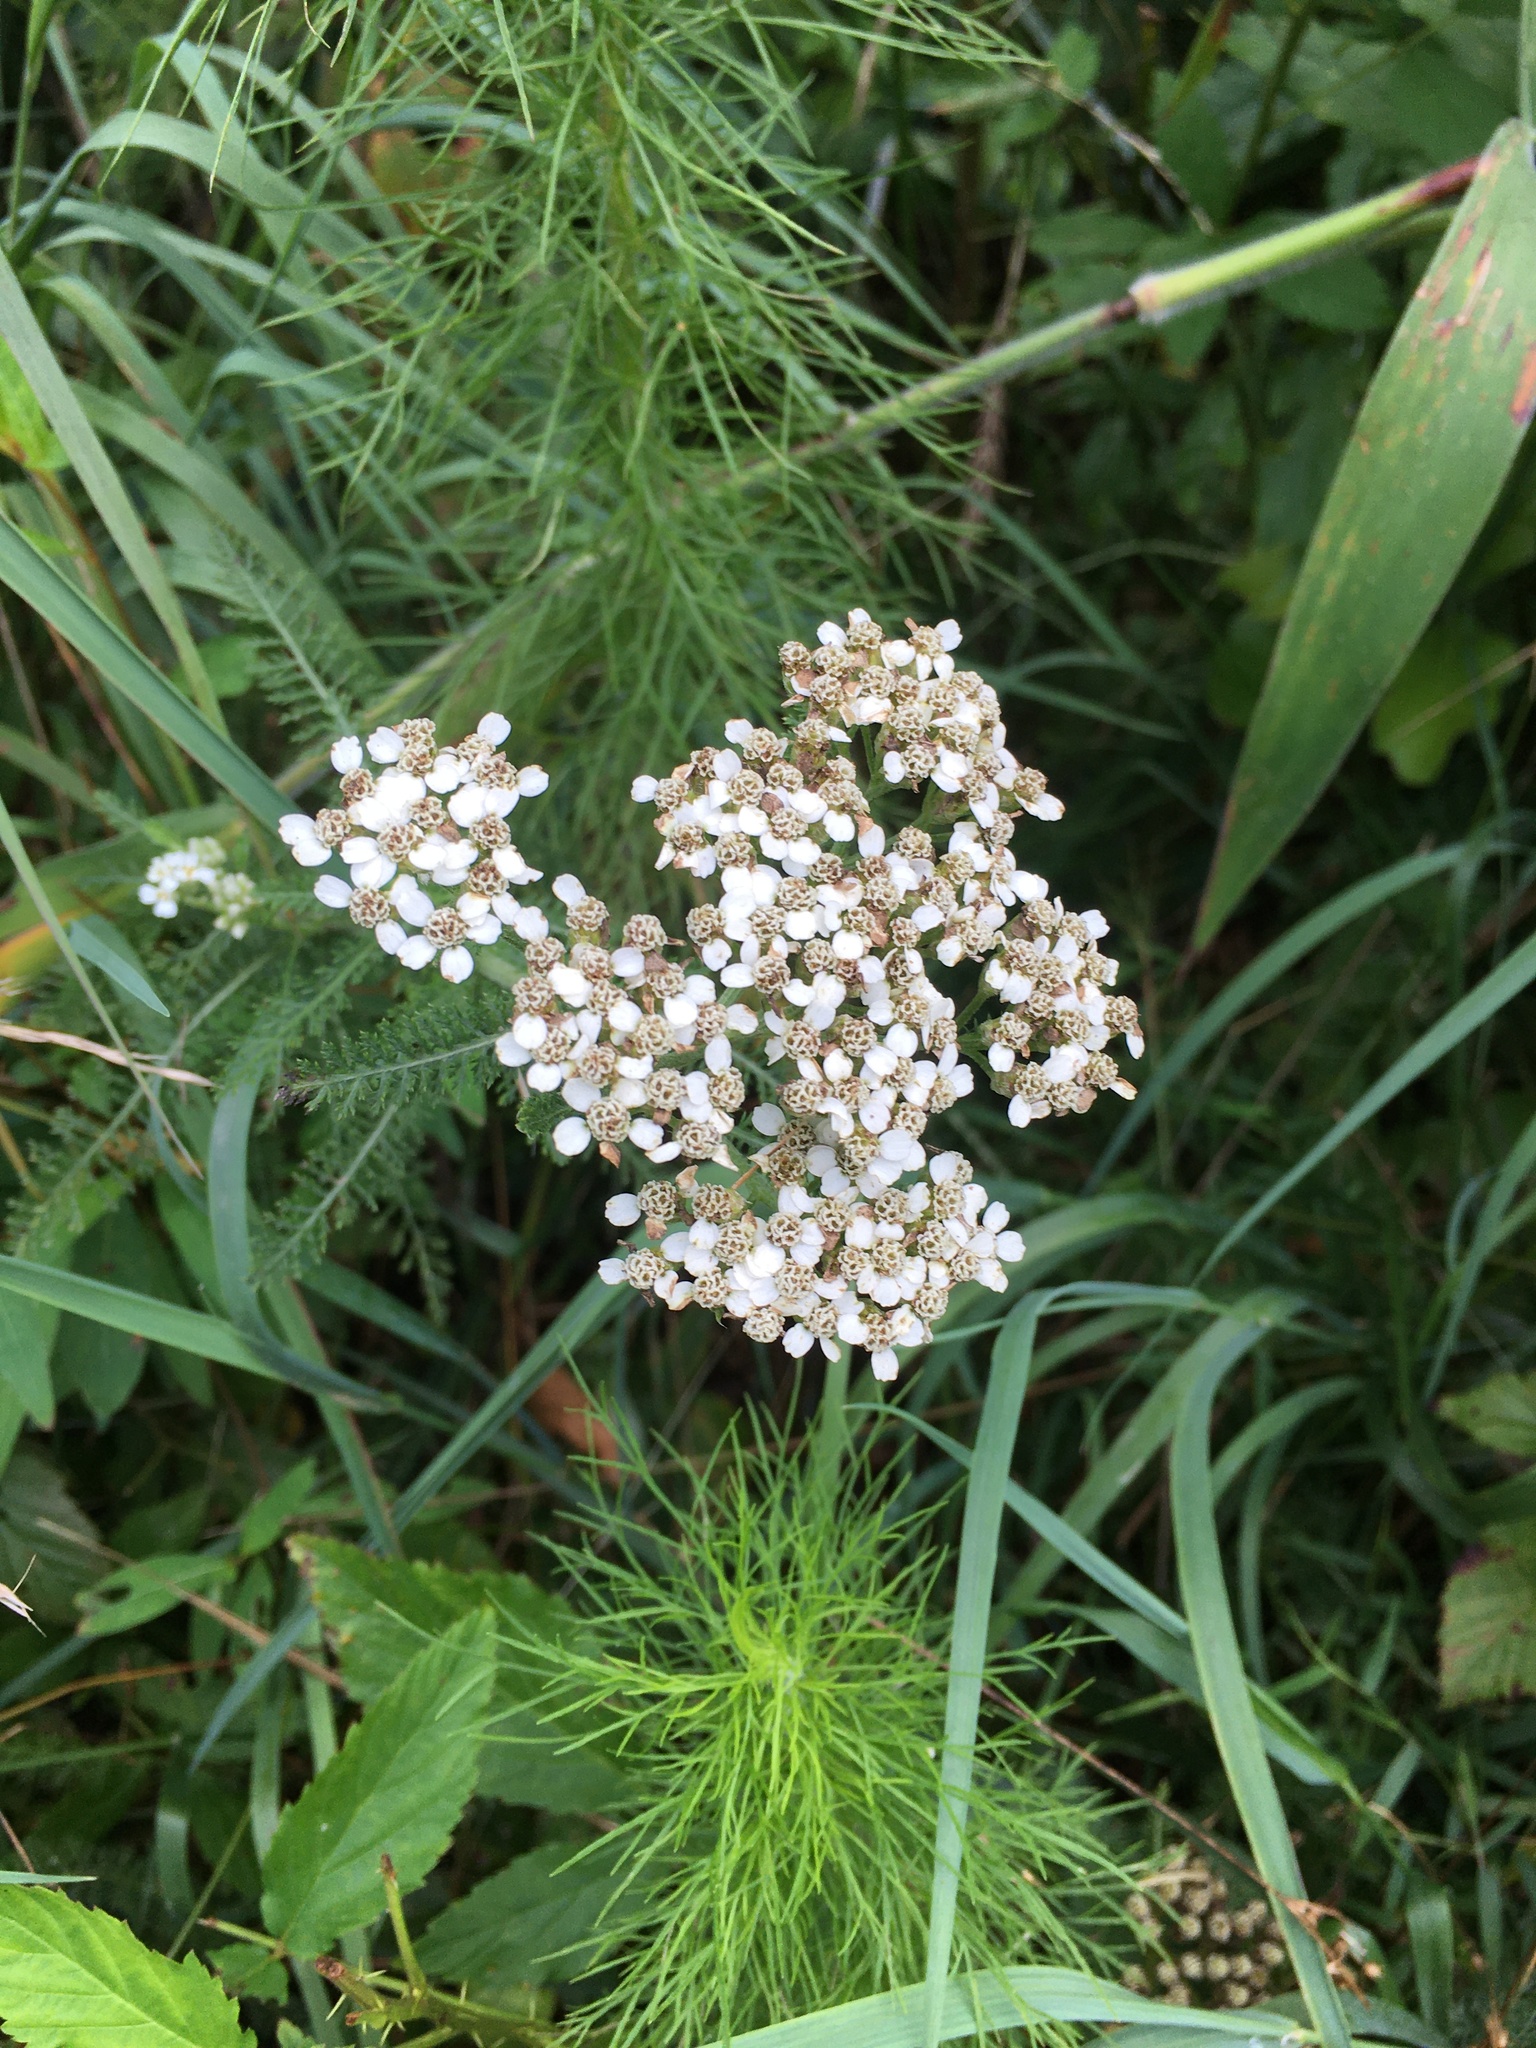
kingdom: Plantae
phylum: Tracheophyta
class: Magnoliopsida
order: Asterales
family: Asteraceae
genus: Achillea
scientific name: Achillea millefolium
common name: Yarrow
